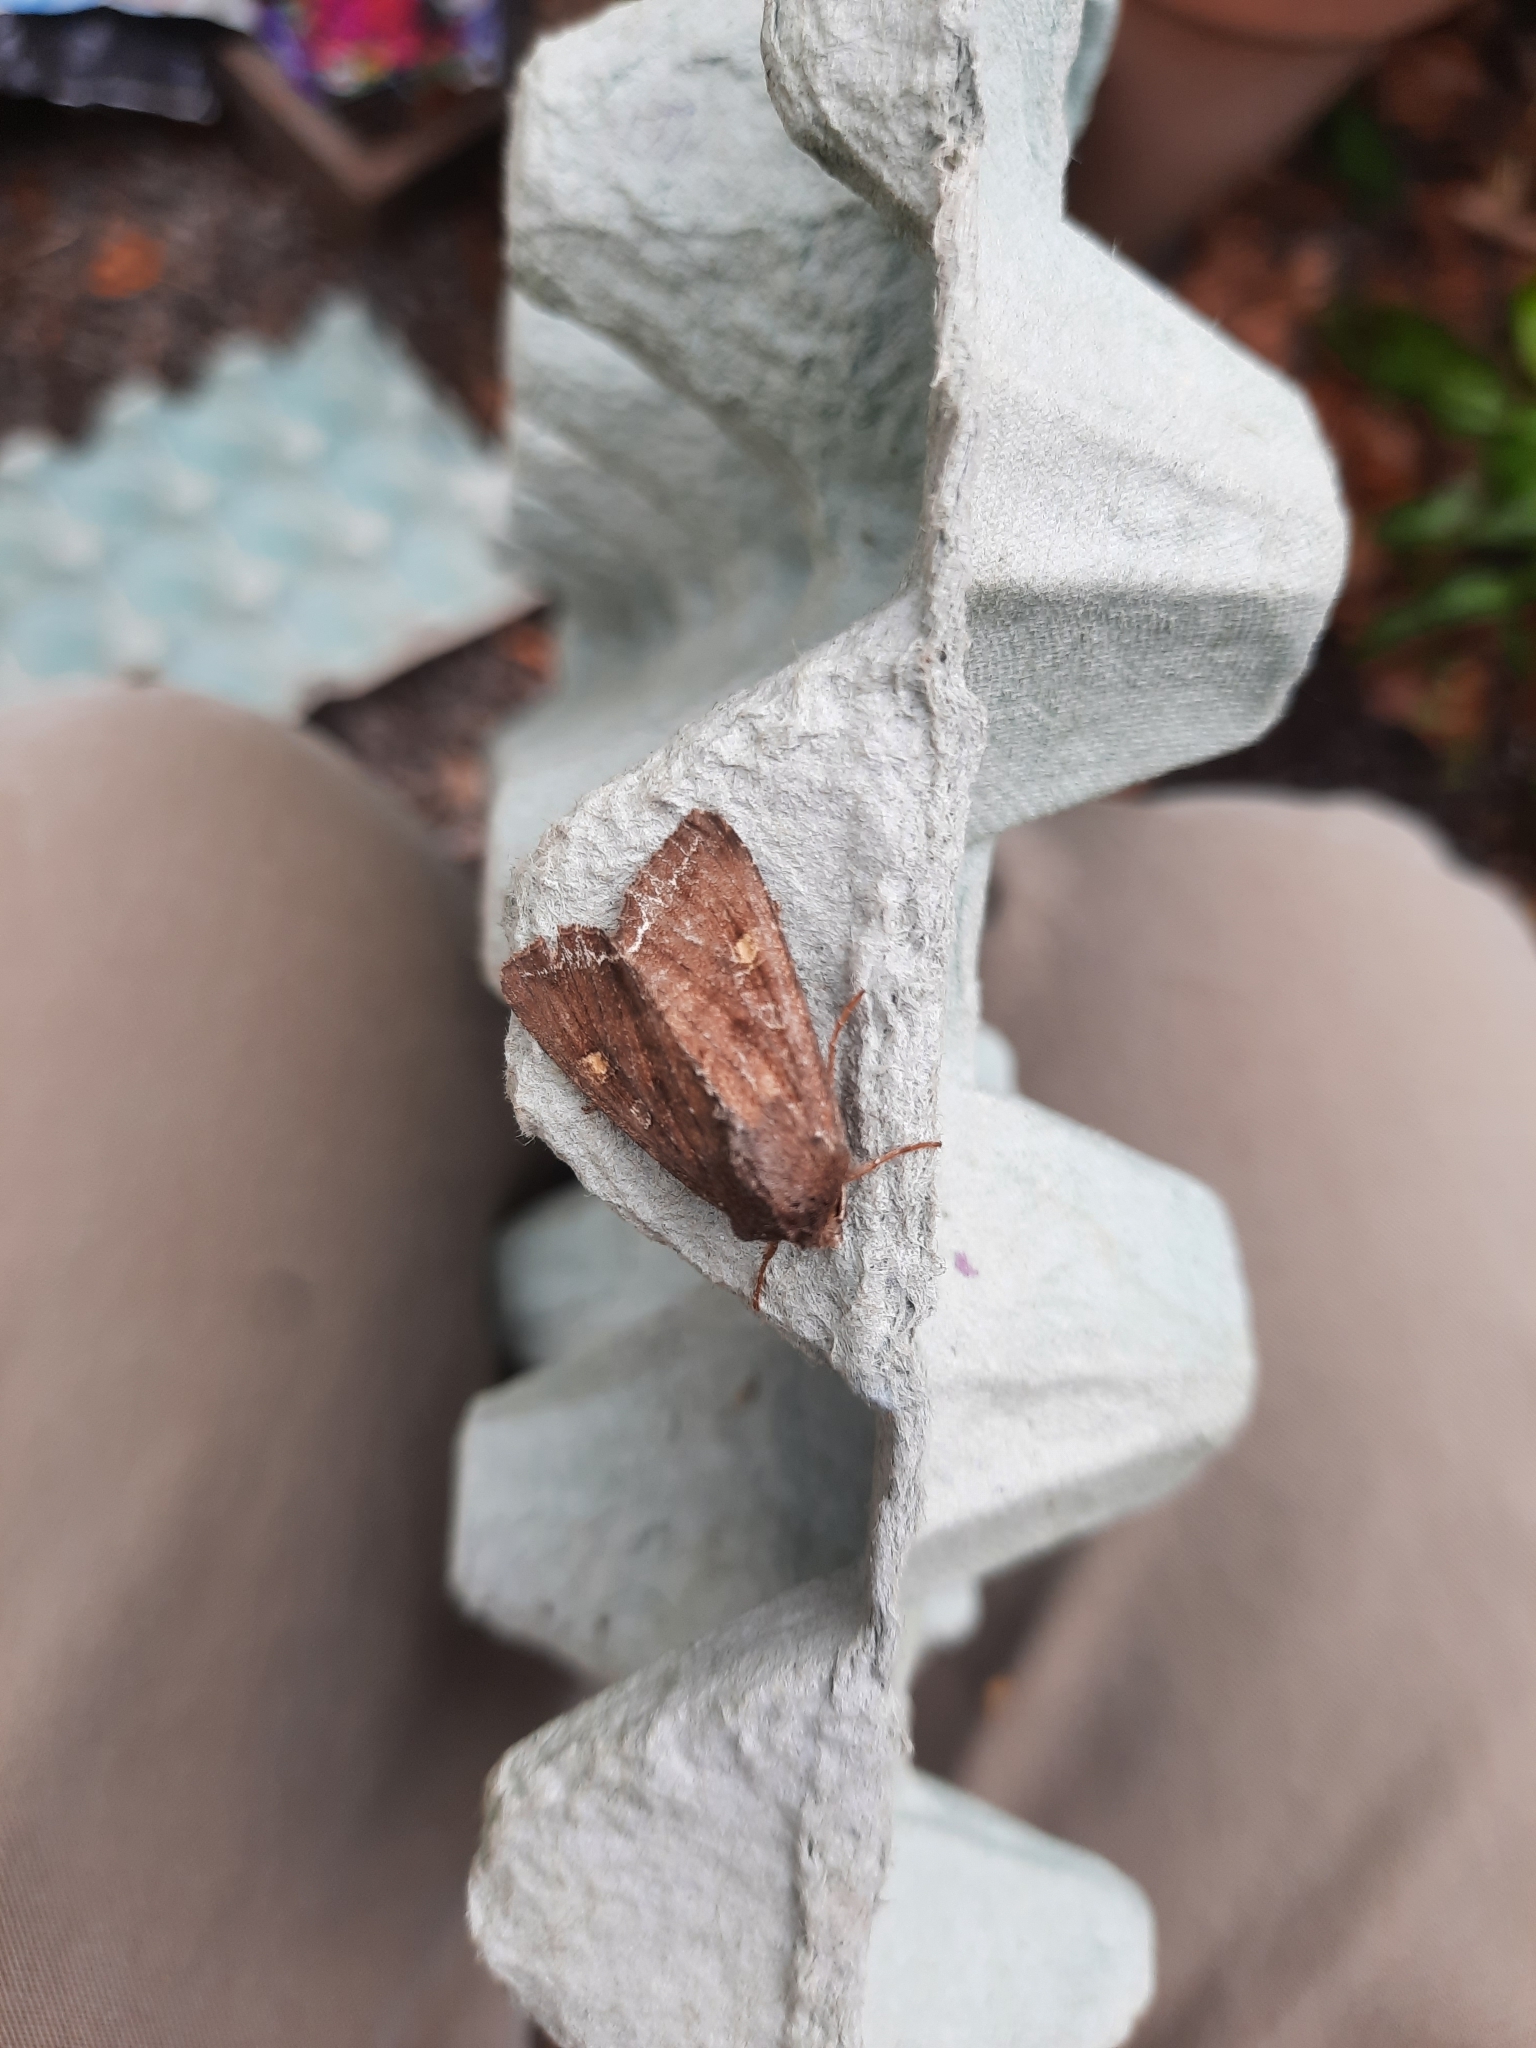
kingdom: Animalia
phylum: Arthropoda
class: Insecta
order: Lepidoptera
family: Noctuidae
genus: Lacanobia
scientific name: Lacanobia oleracea
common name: Bright-line brown-eye
